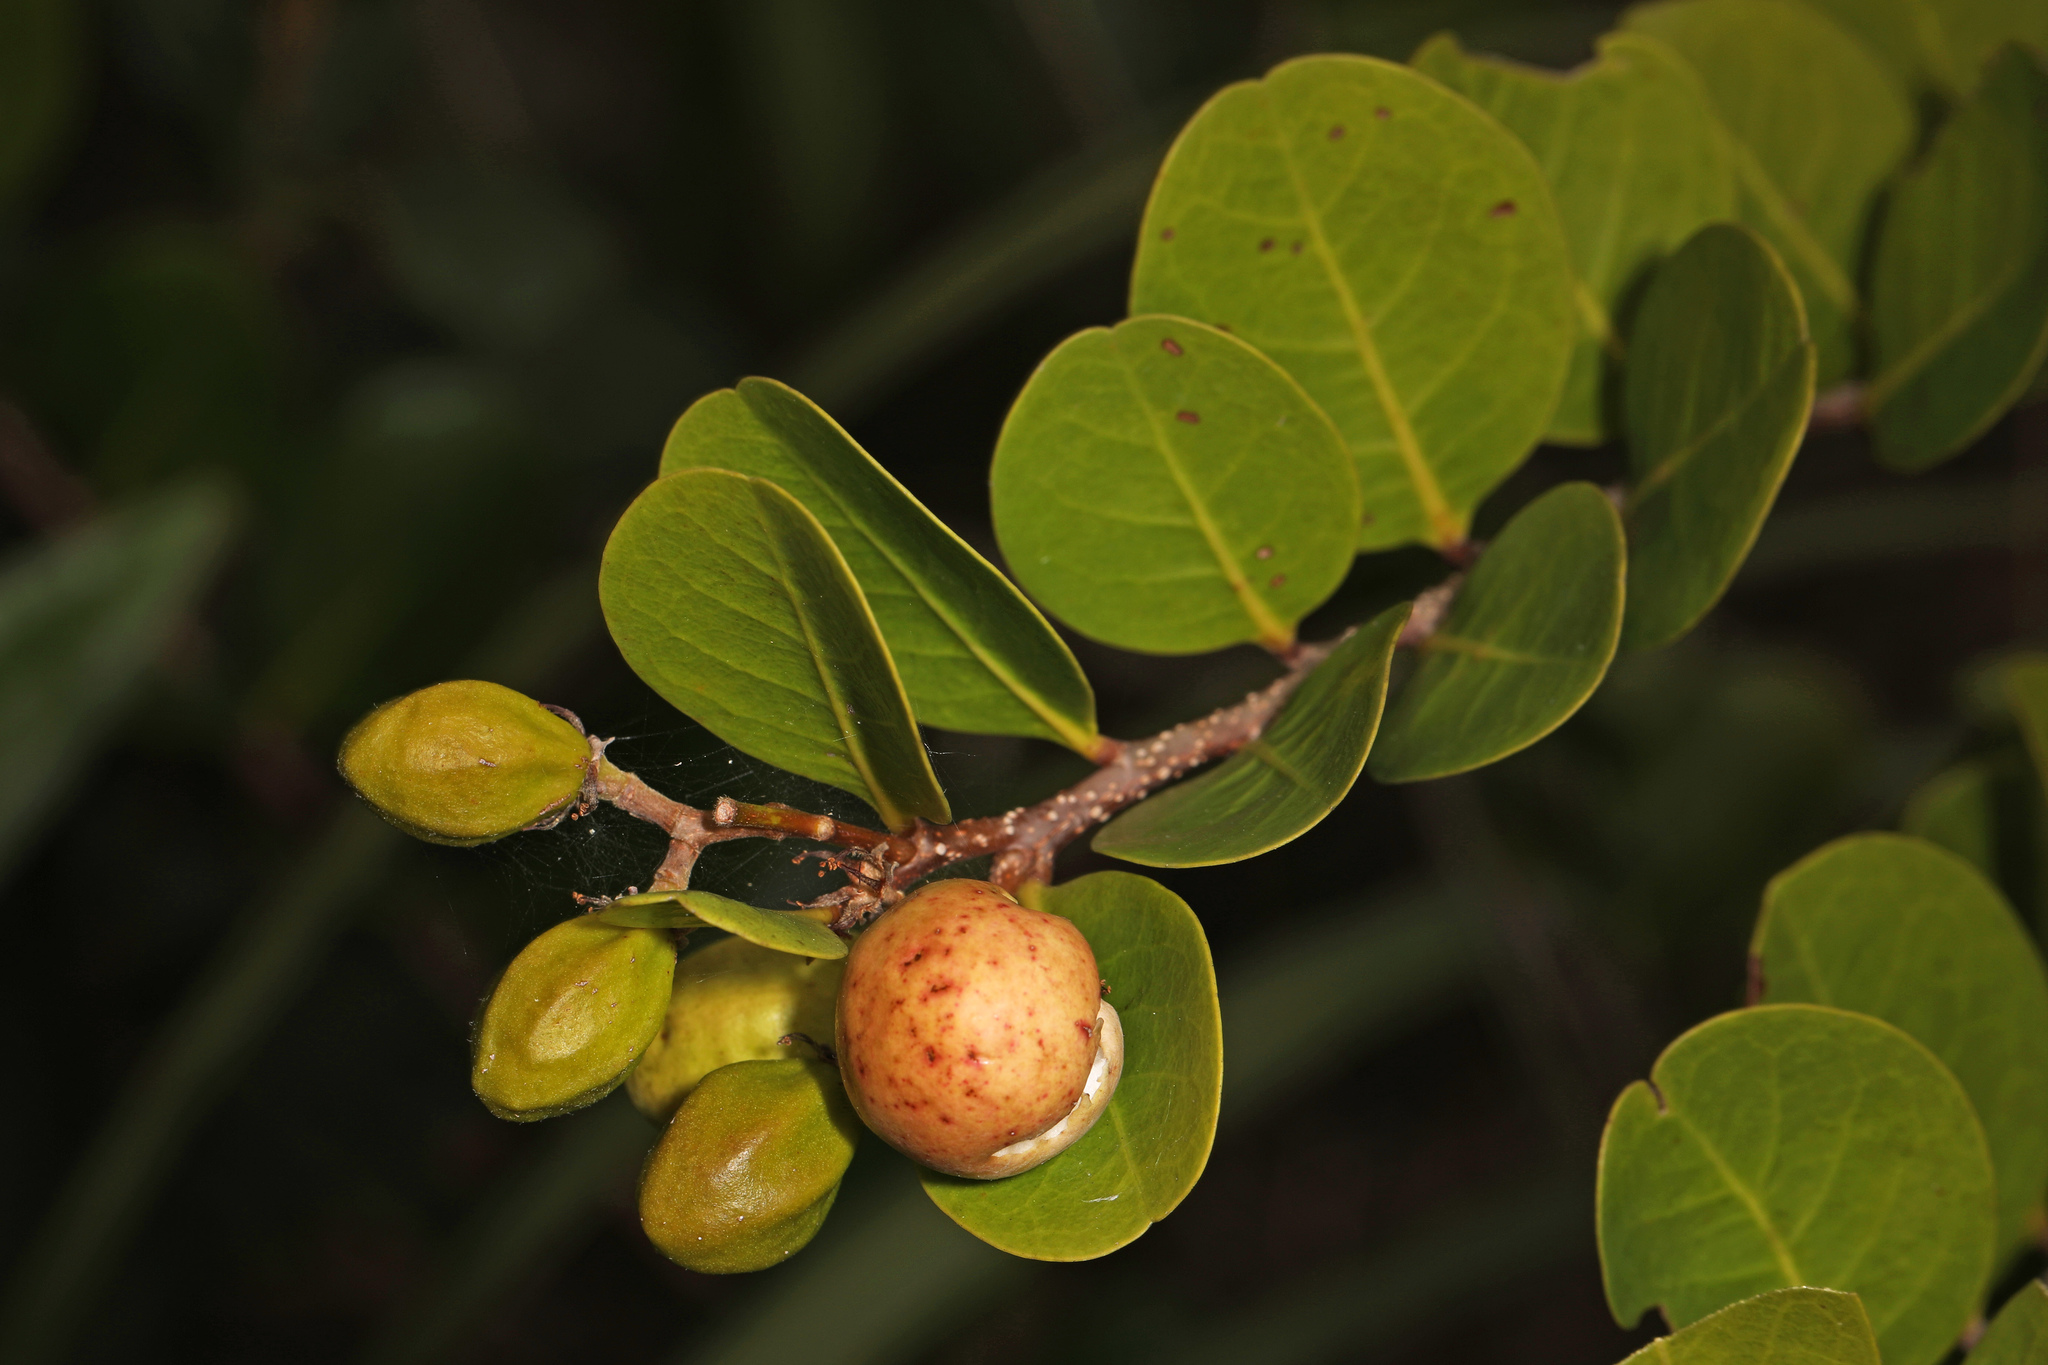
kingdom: Plantae
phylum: Tracheophyta
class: Magnoliopsida
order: Malpighiales
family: Chrysobalanaceae
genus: Chrysobalanus
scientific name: Chrysobalanus icaco
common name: Coco plum
